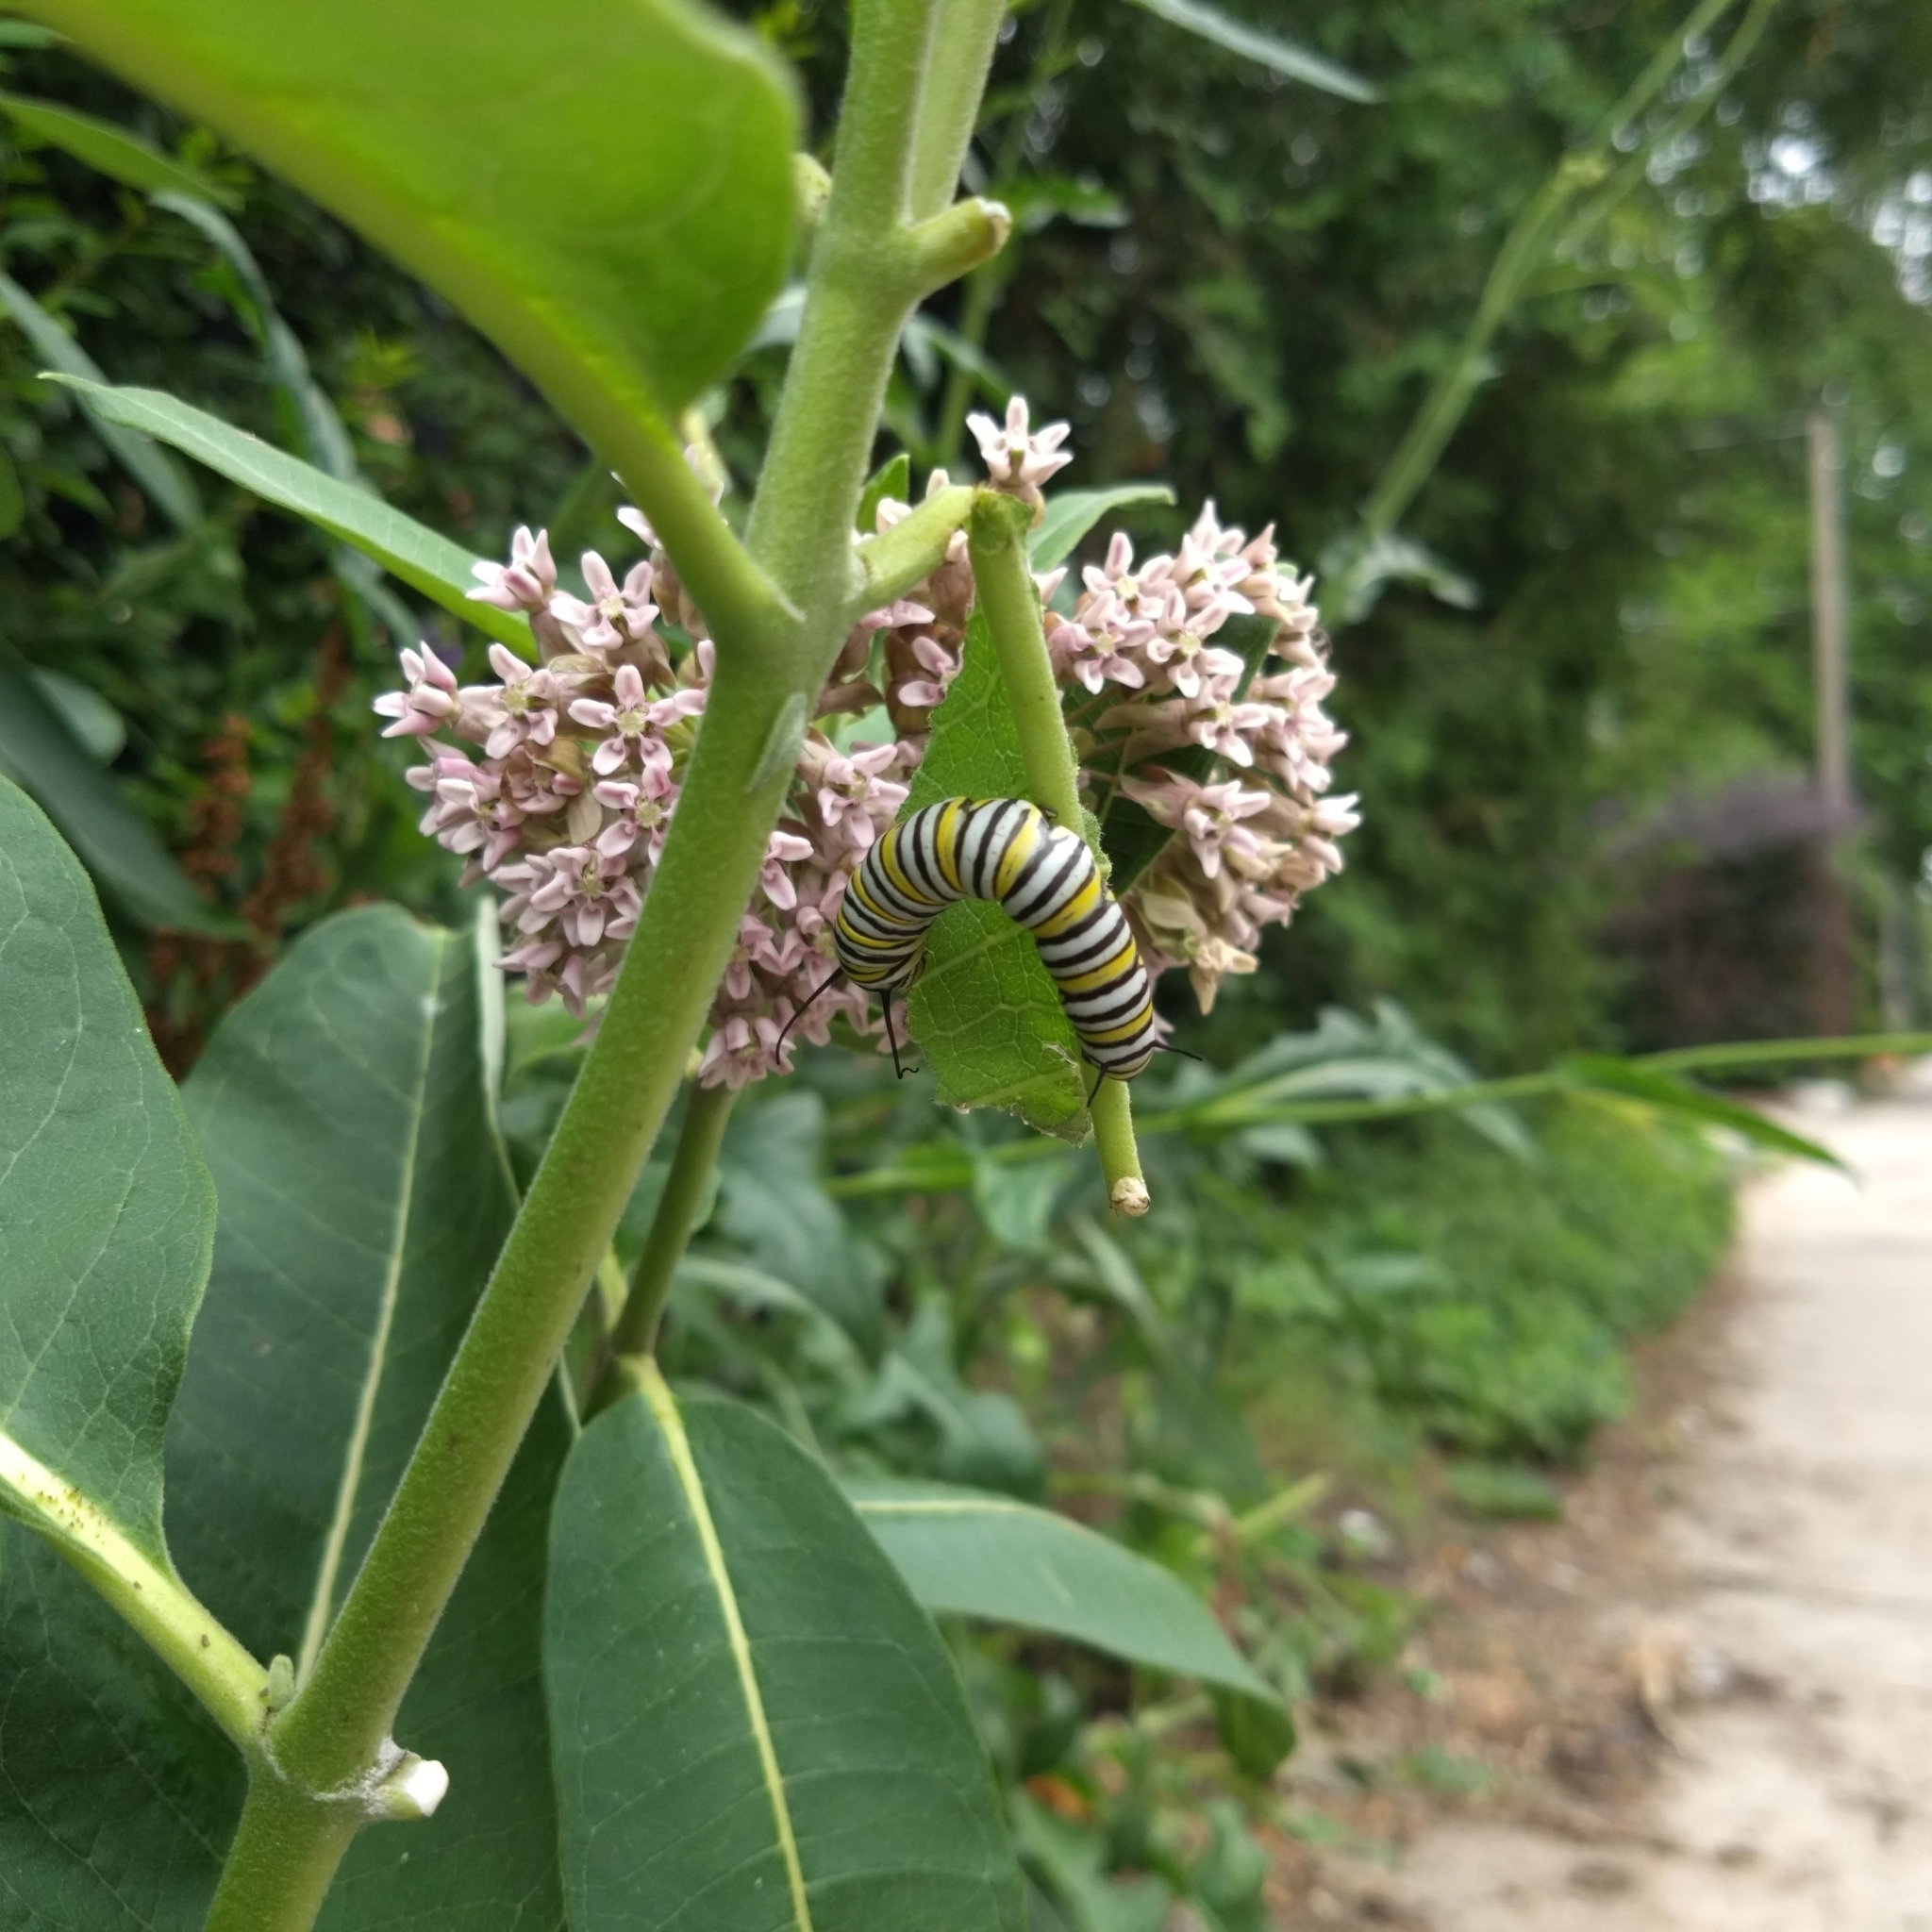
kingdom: Animalia
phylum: Arthropoda
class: Insecta
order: Lepidoptera
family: Nymphalidae
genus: Danaus
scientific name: Danaus plexippus
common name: Monarch
